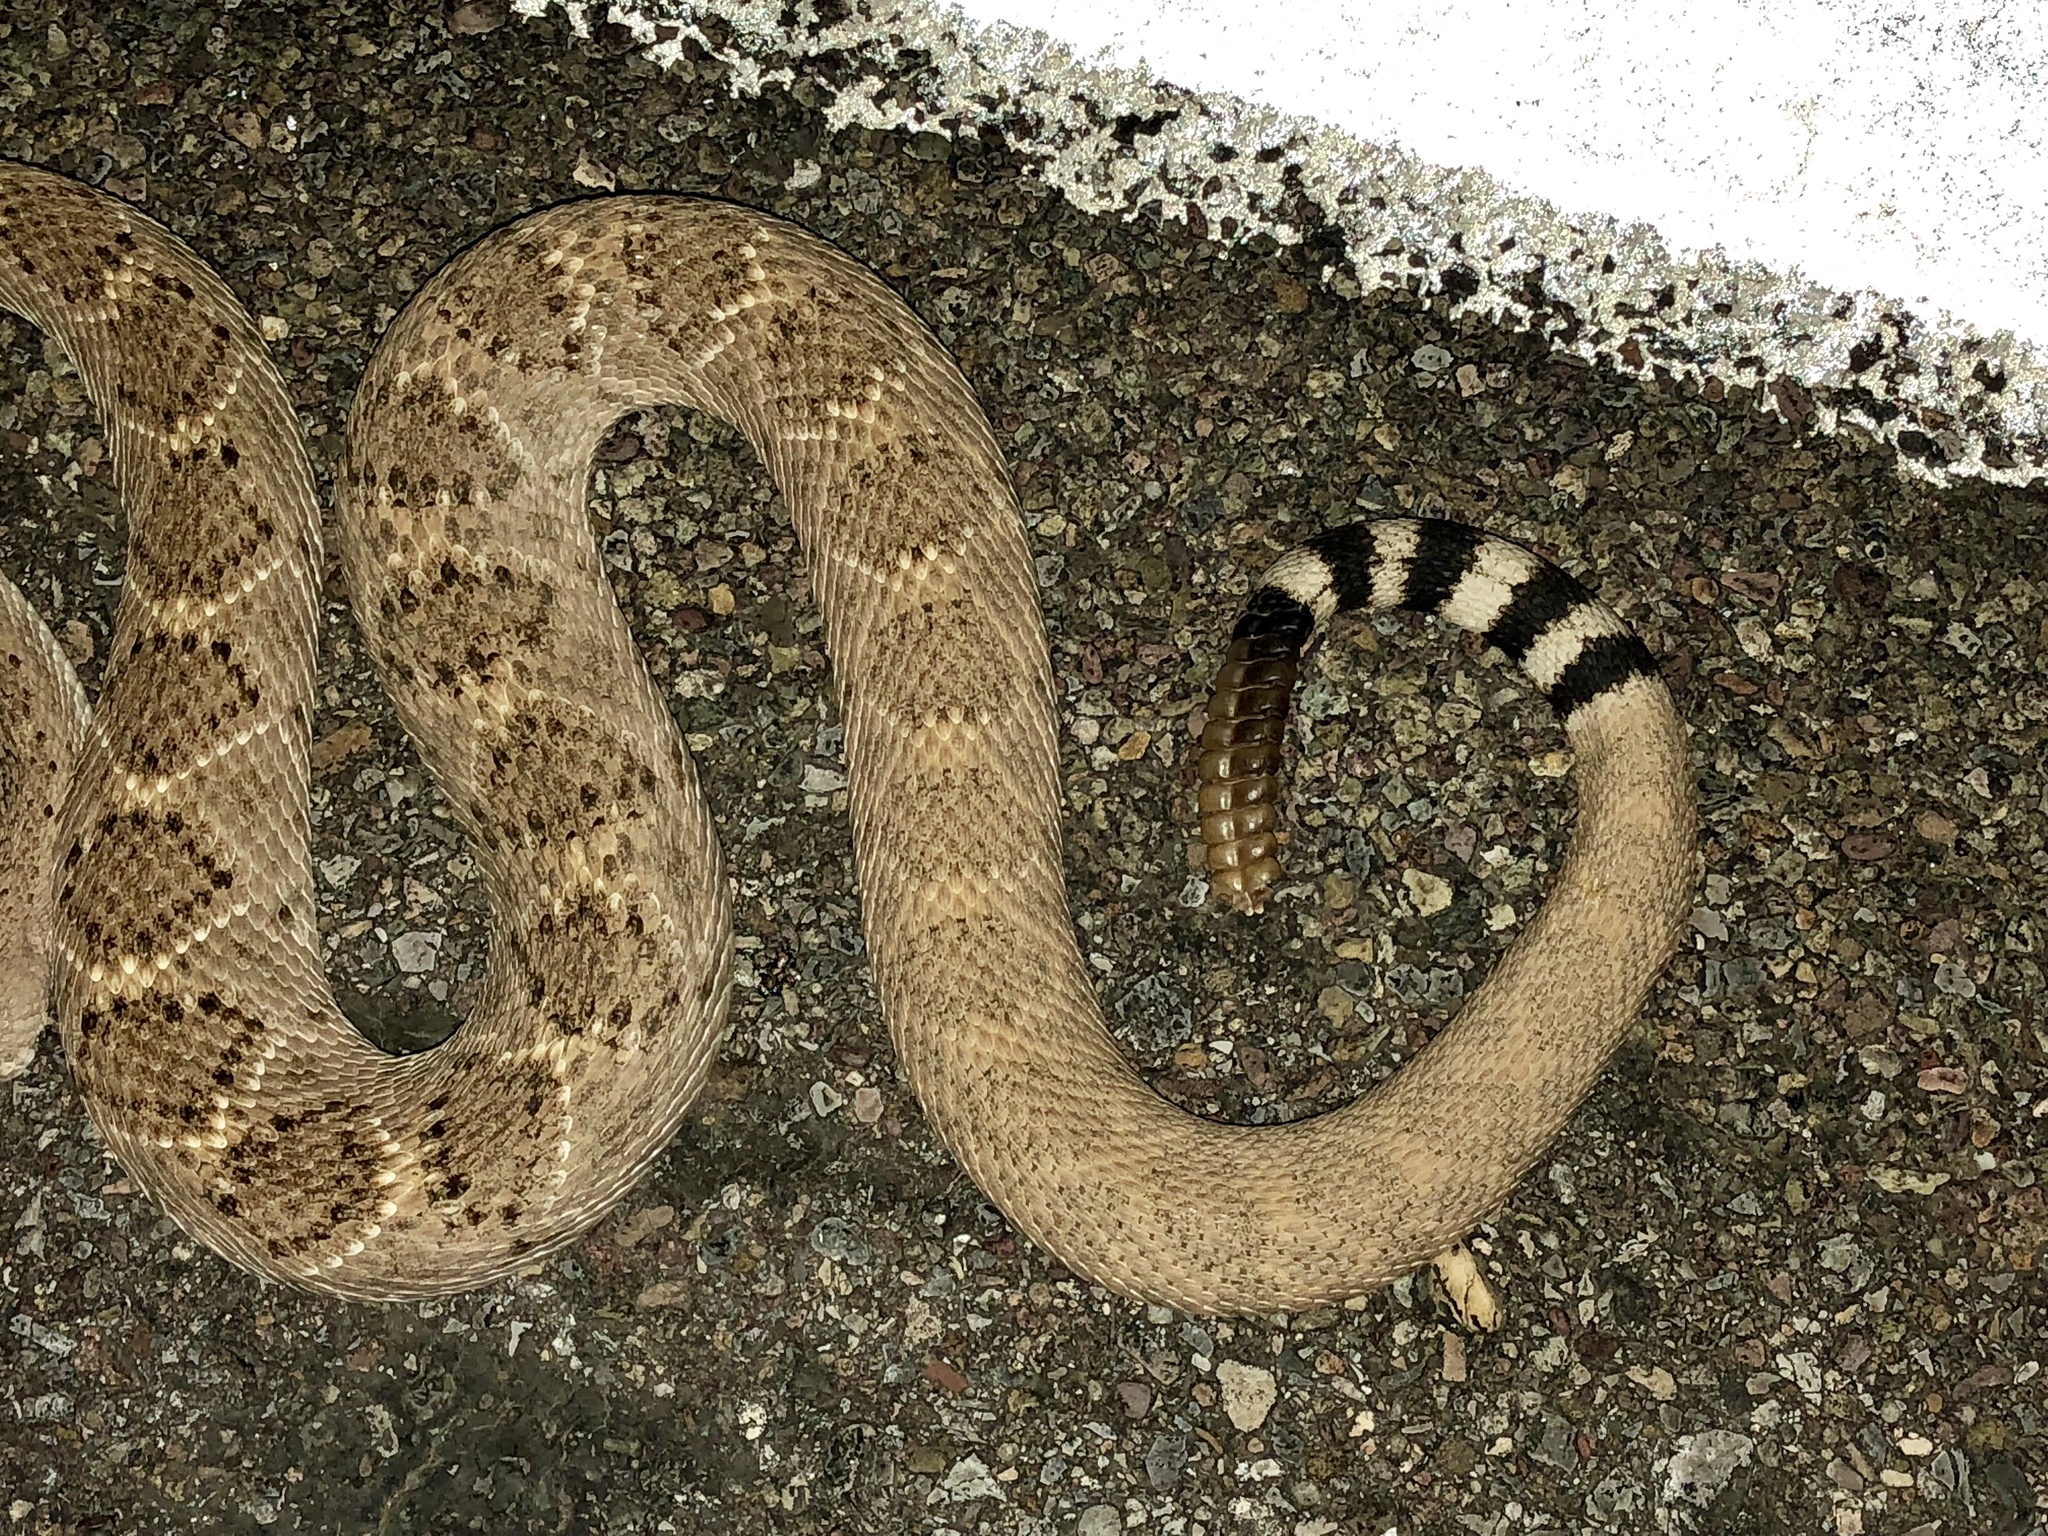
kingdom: Animalia
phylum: Chordata
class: Squamata
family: Viperidae
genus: Crotalus
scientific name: Crotalus atrox
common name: Western diamond-backed rattlesnake
